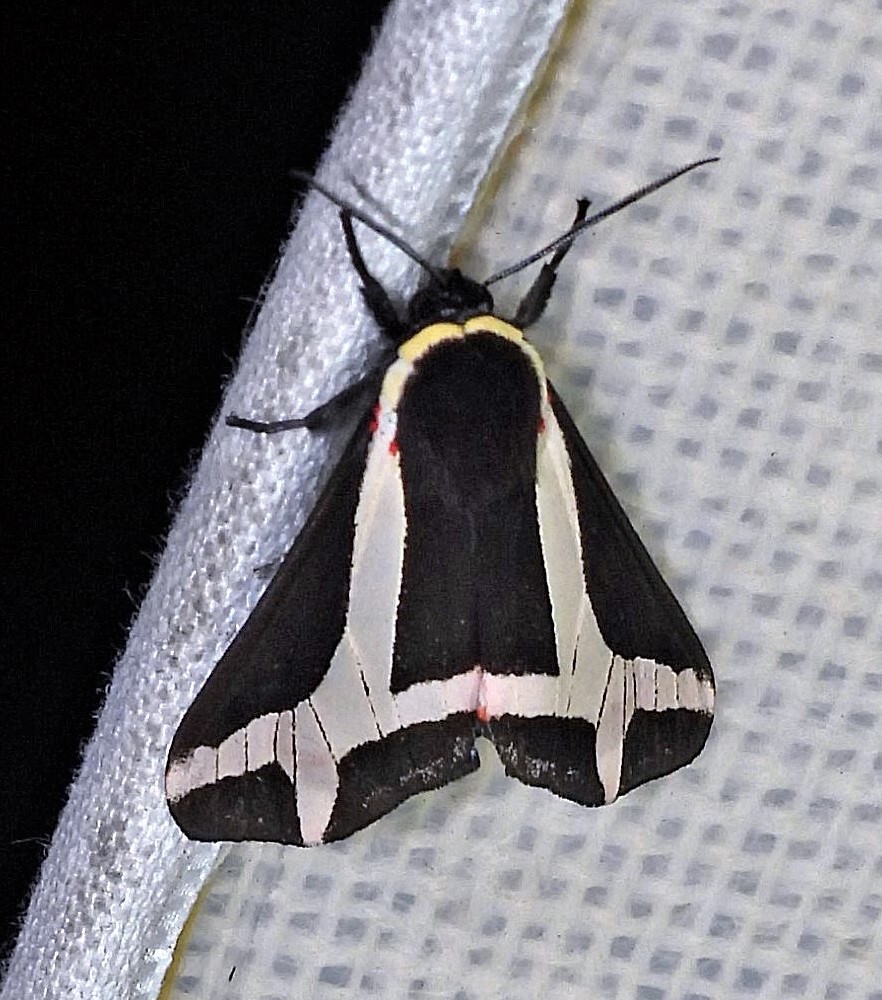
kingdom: Animalia
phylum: Arthropoda
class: Insecta
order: Lepidoptera
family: Erebidae
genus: Dysschema
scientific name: Dysschema sacrifica
